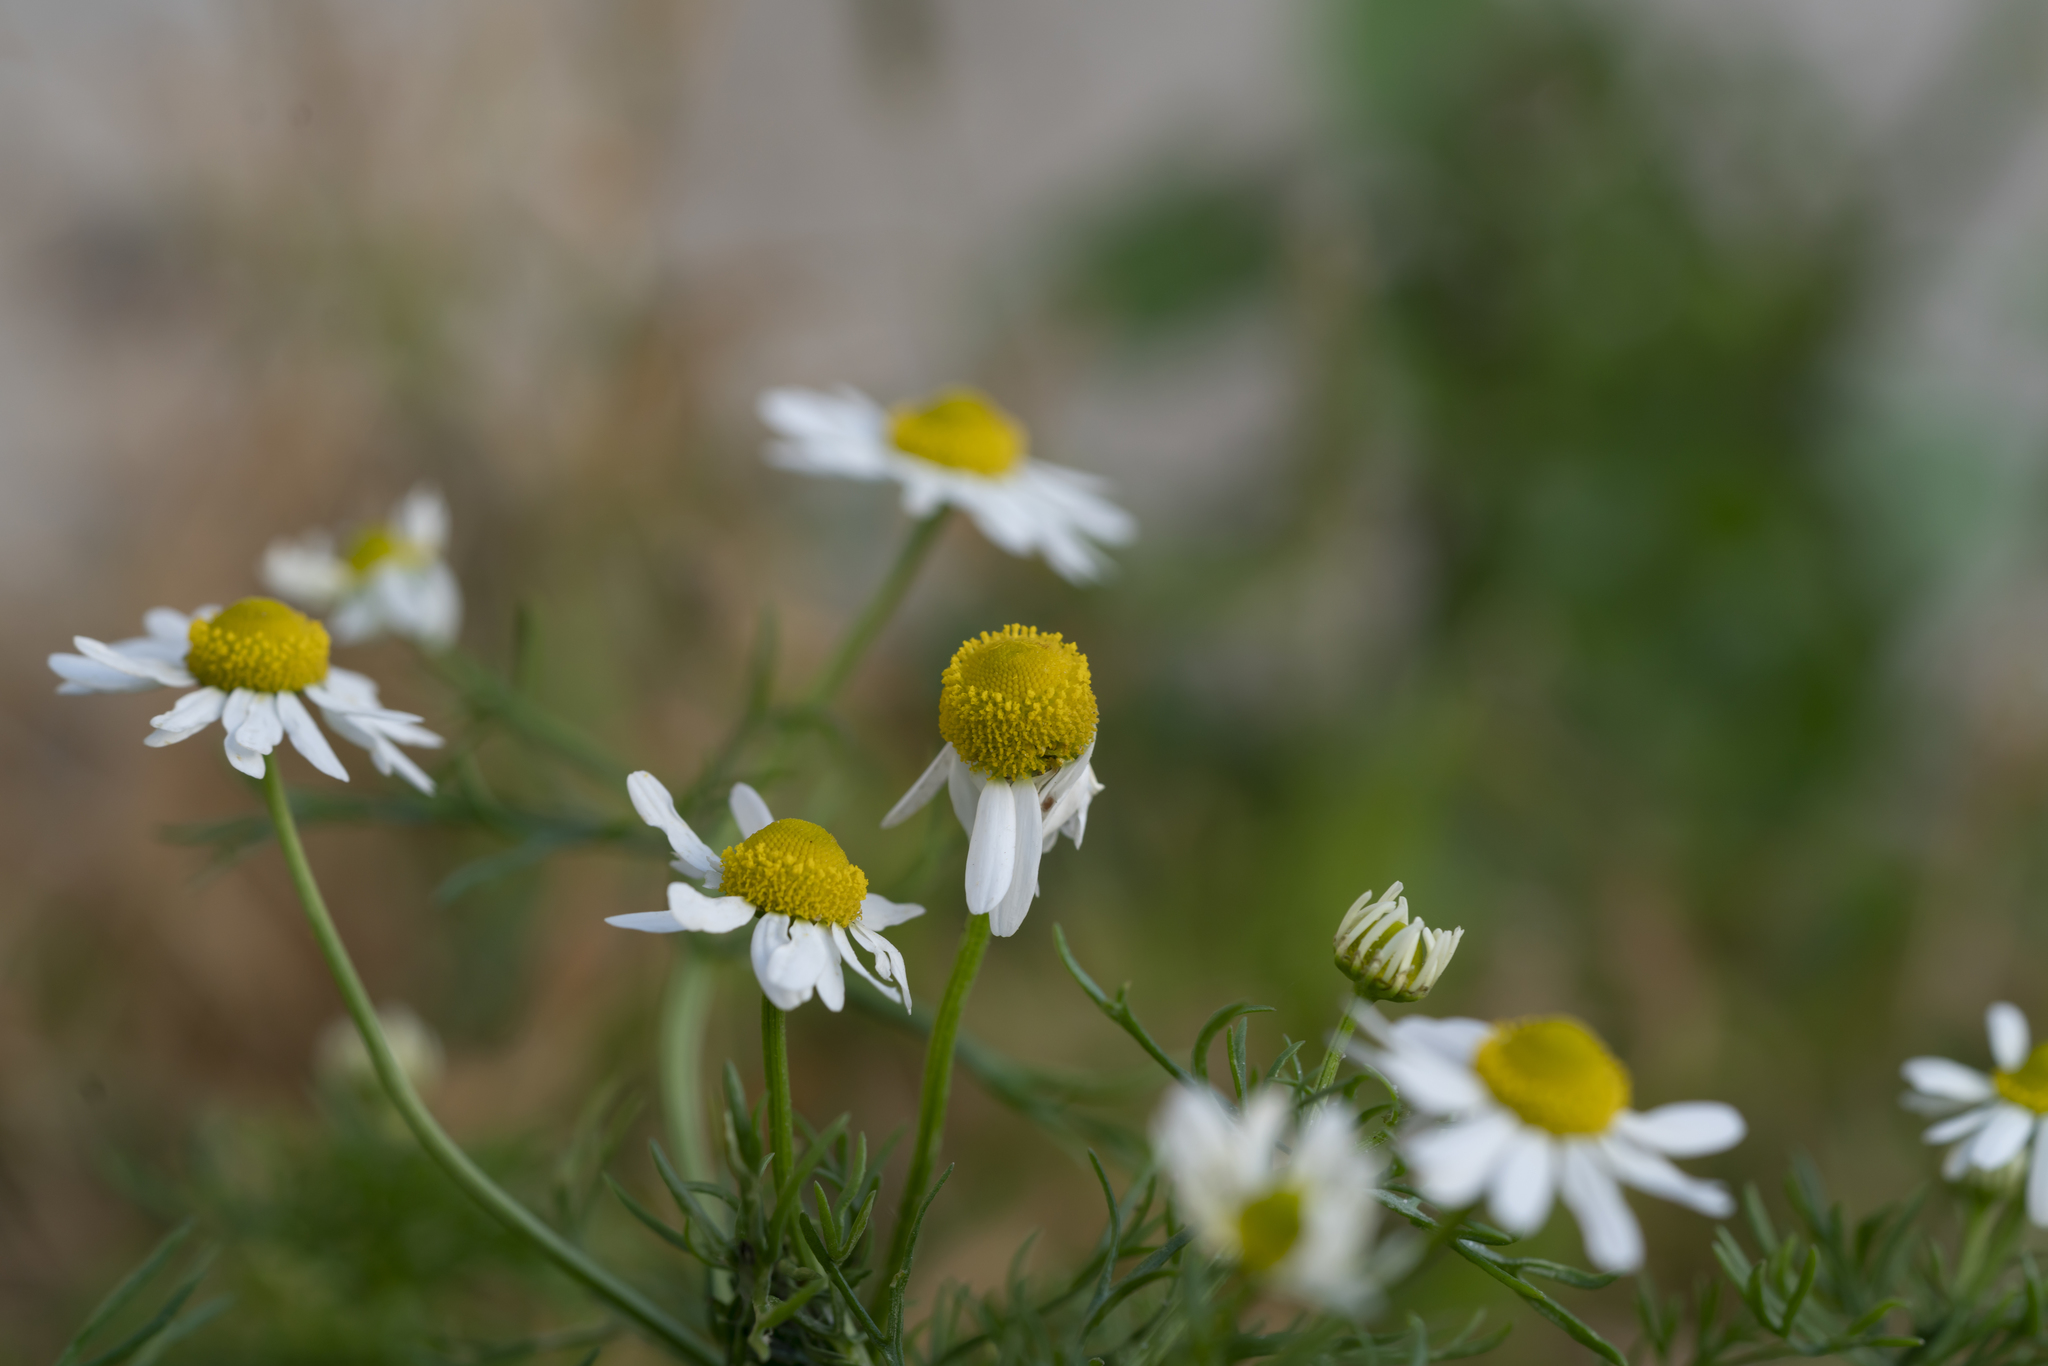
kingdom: Plantae
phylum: Tracheophyta
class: Magnoliopsida
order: Asterales
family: Asteraceae
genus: Matricaria
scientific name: Matricaria chamomilla
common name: Scented mayweed
